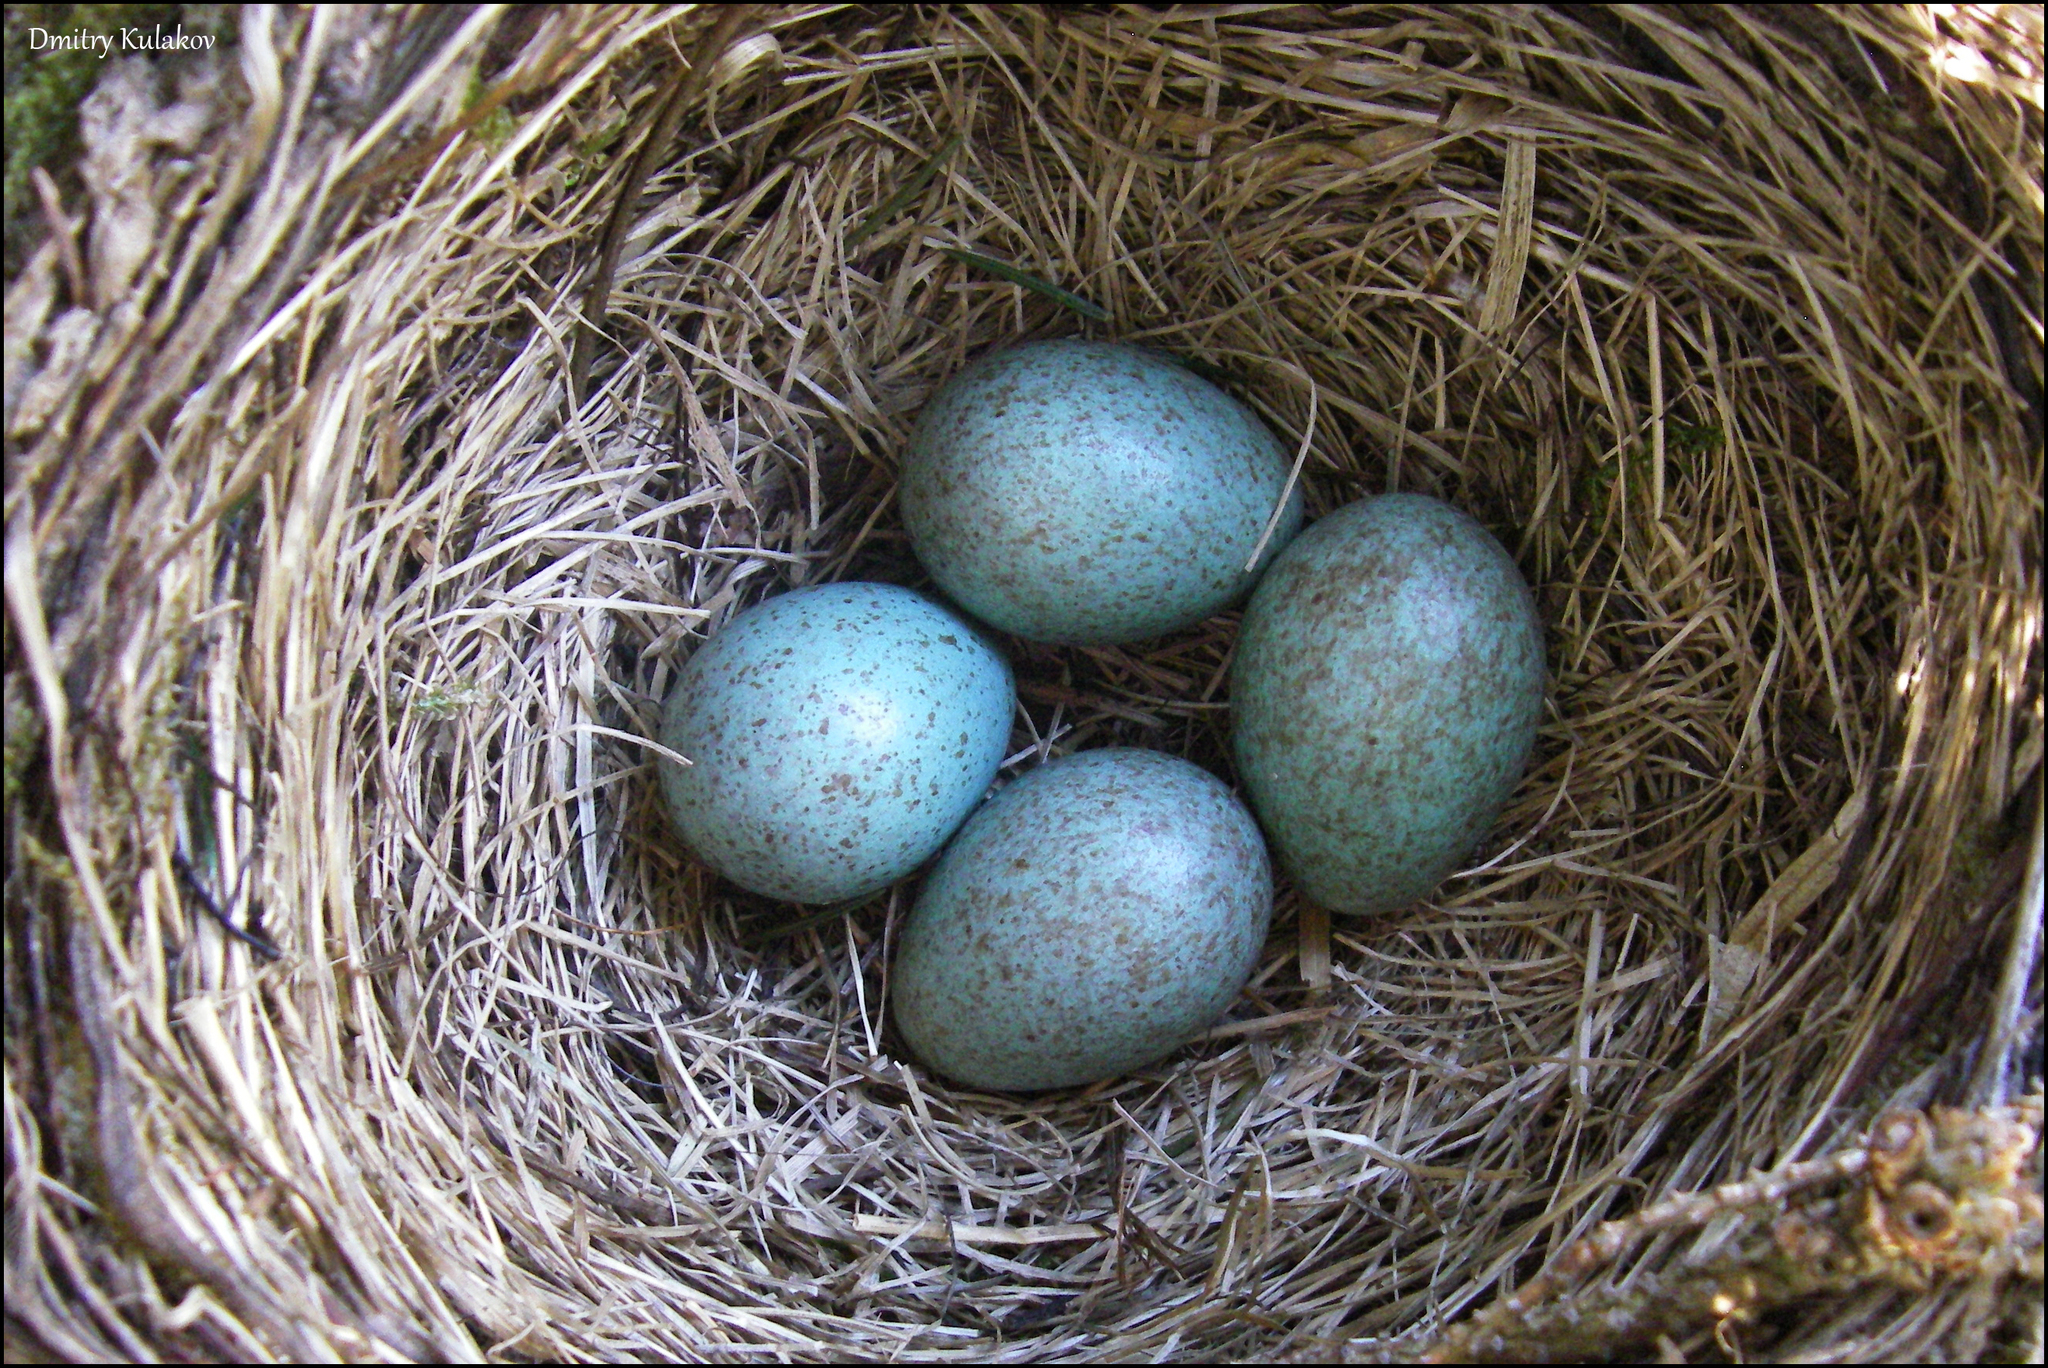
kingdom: Animalia
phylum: Chordata
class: Aves
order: Passeriformes
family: Turdidae
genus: Turdus
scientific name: Turdus merula
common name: Common blackbird
